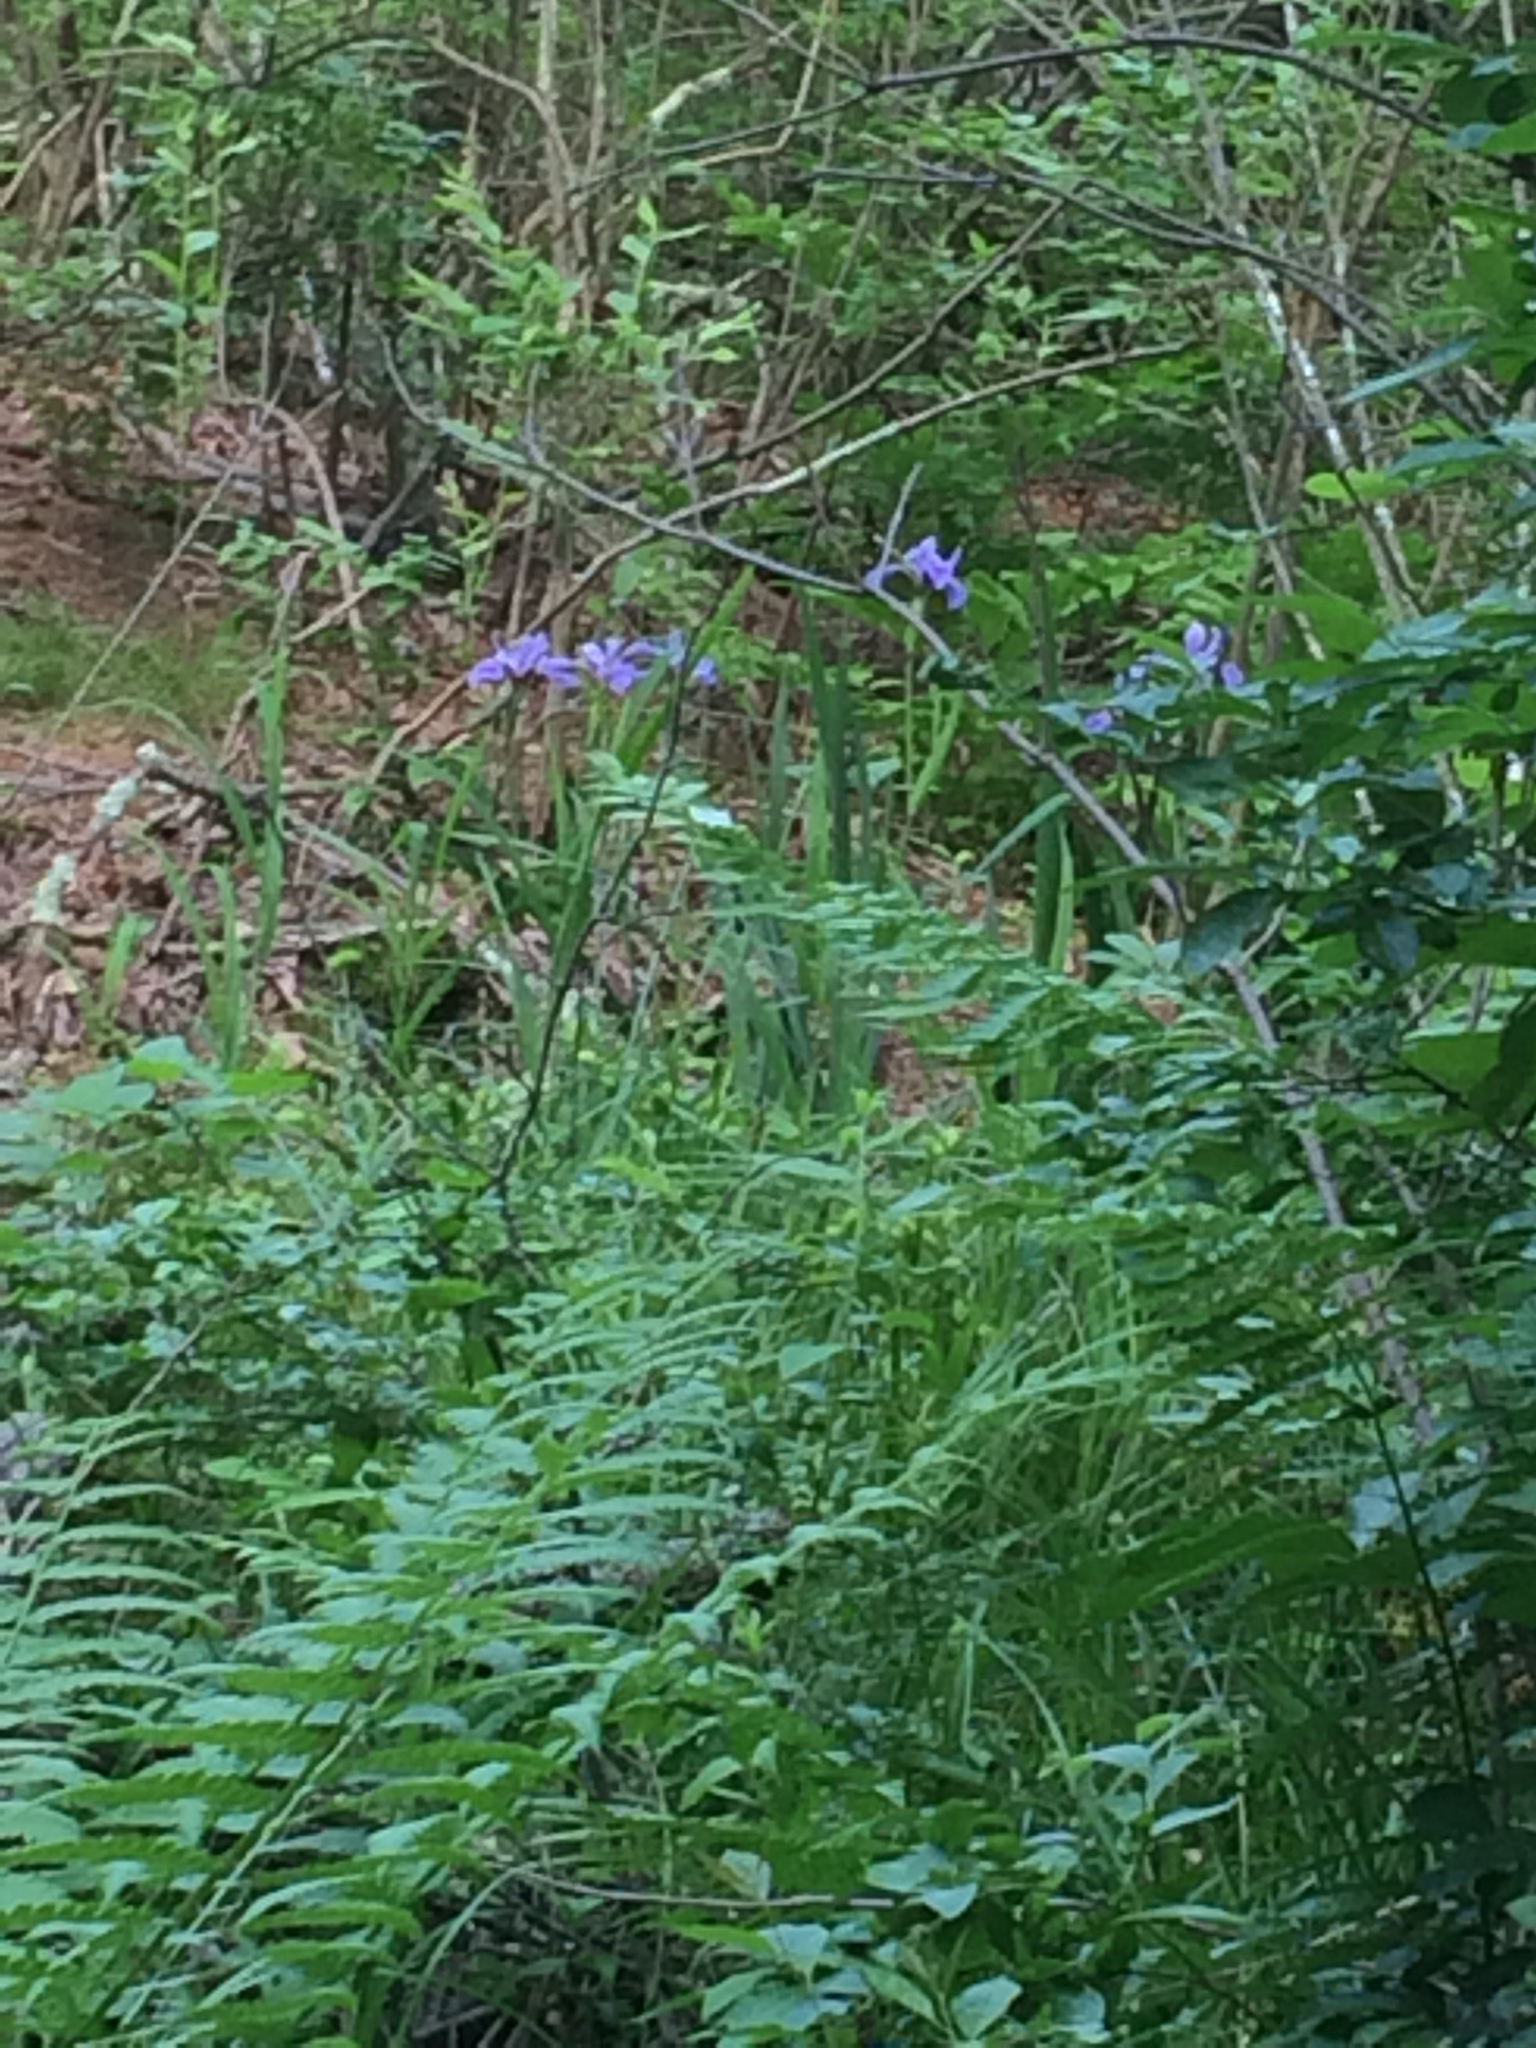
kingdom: Plantae
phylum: Tracheophyta
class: Liliopsida
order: Asparagales
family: Iridaceae
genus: Iris
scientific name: Iris versicolor
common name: Purple iris
